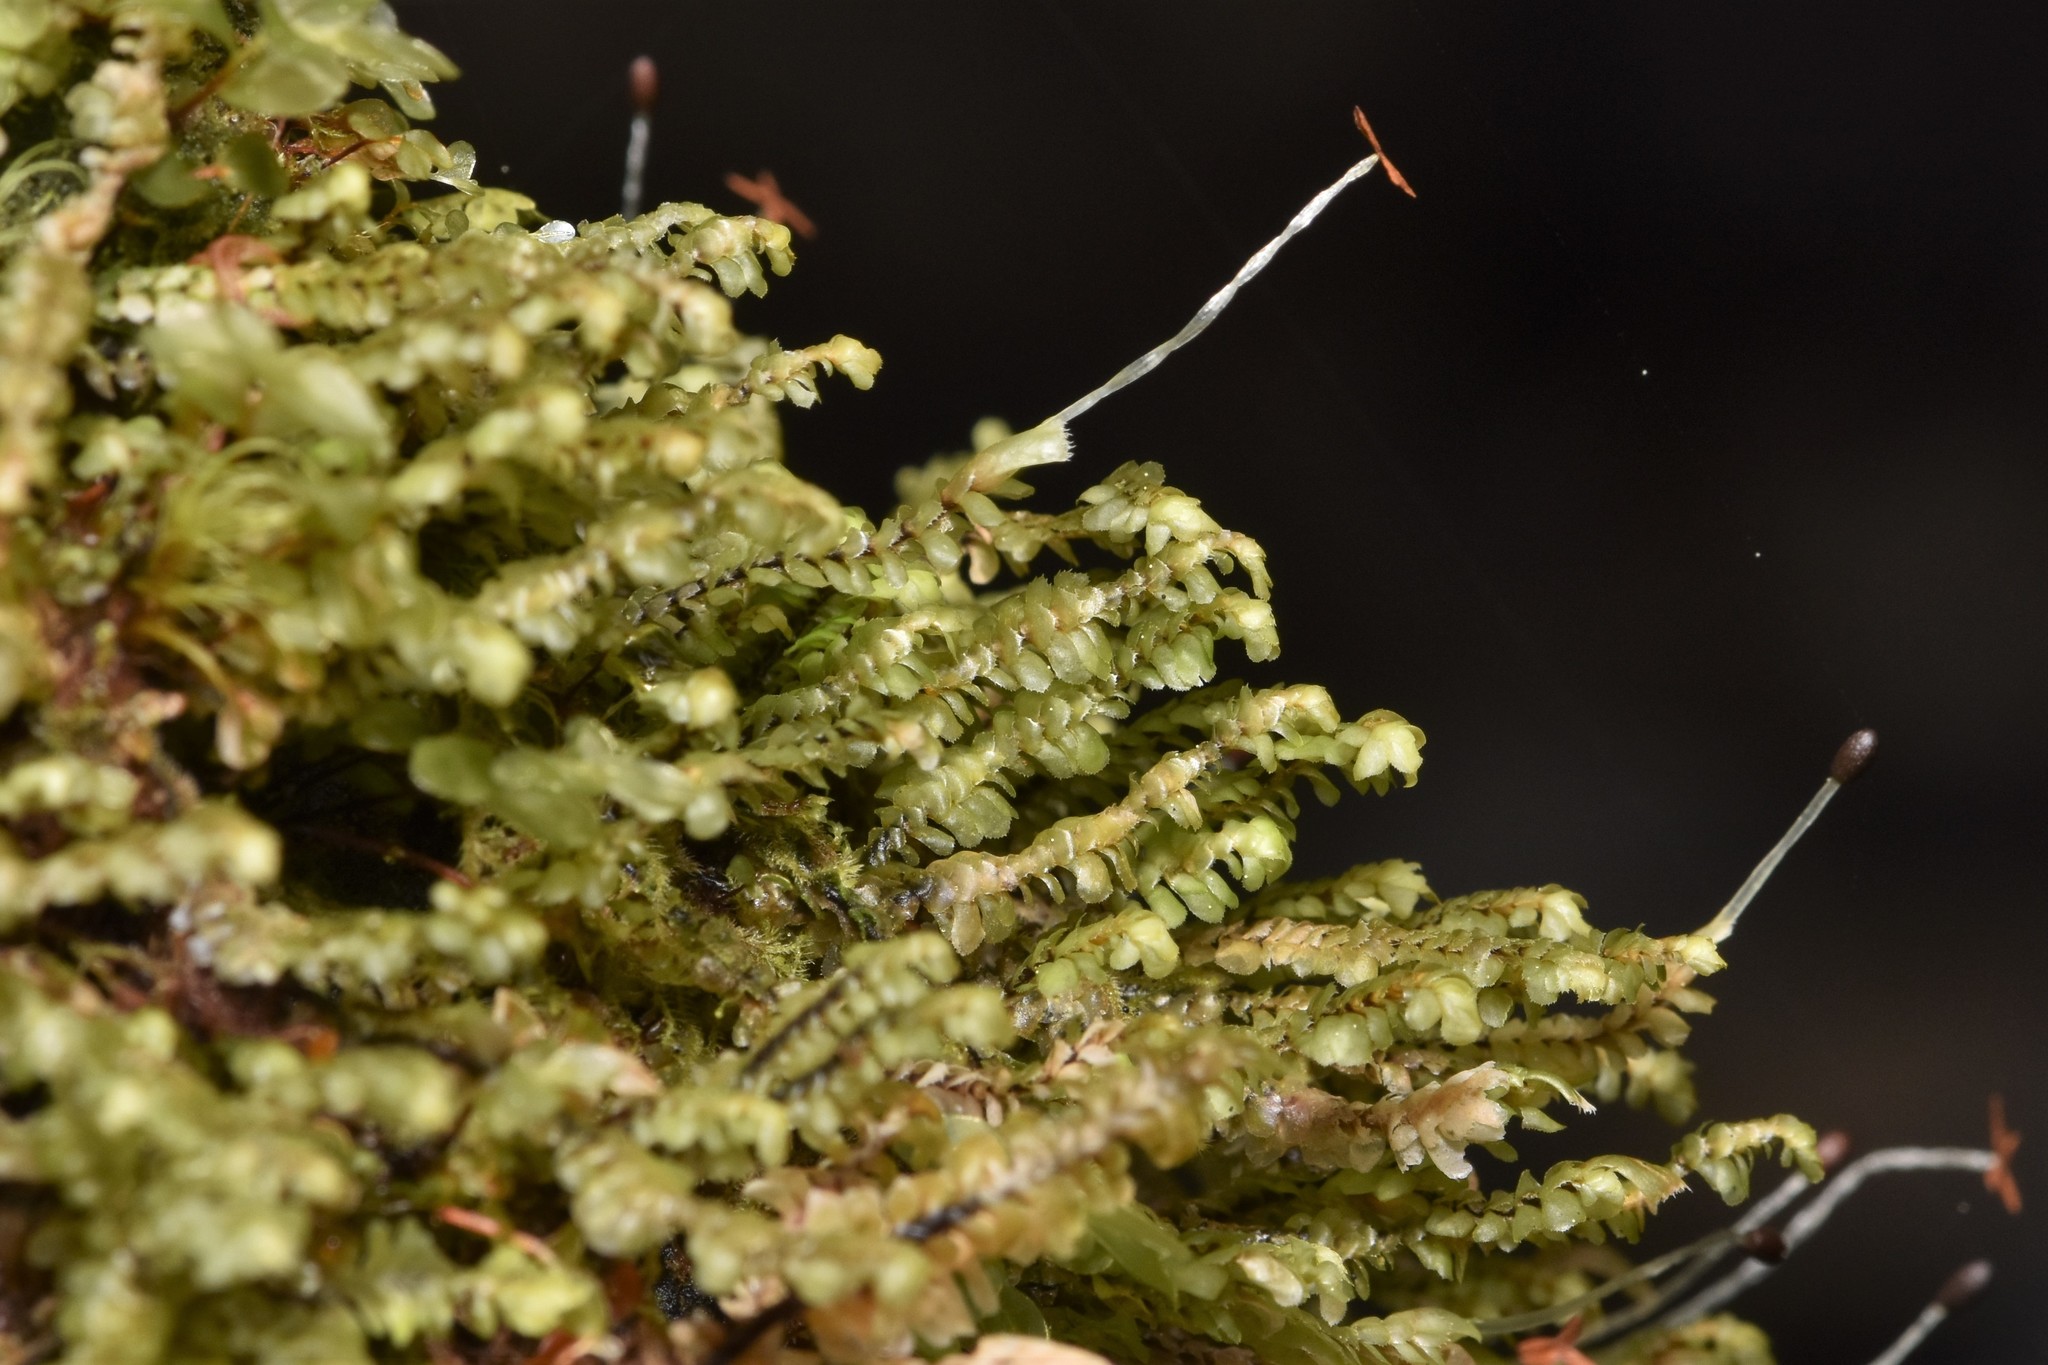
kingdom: Plantae
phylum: Marchantiophyta
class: Jungermanniopsida
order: Jungermanniales
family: Scapaniaceae
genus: Scapania
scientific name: Scapania bolanderi
